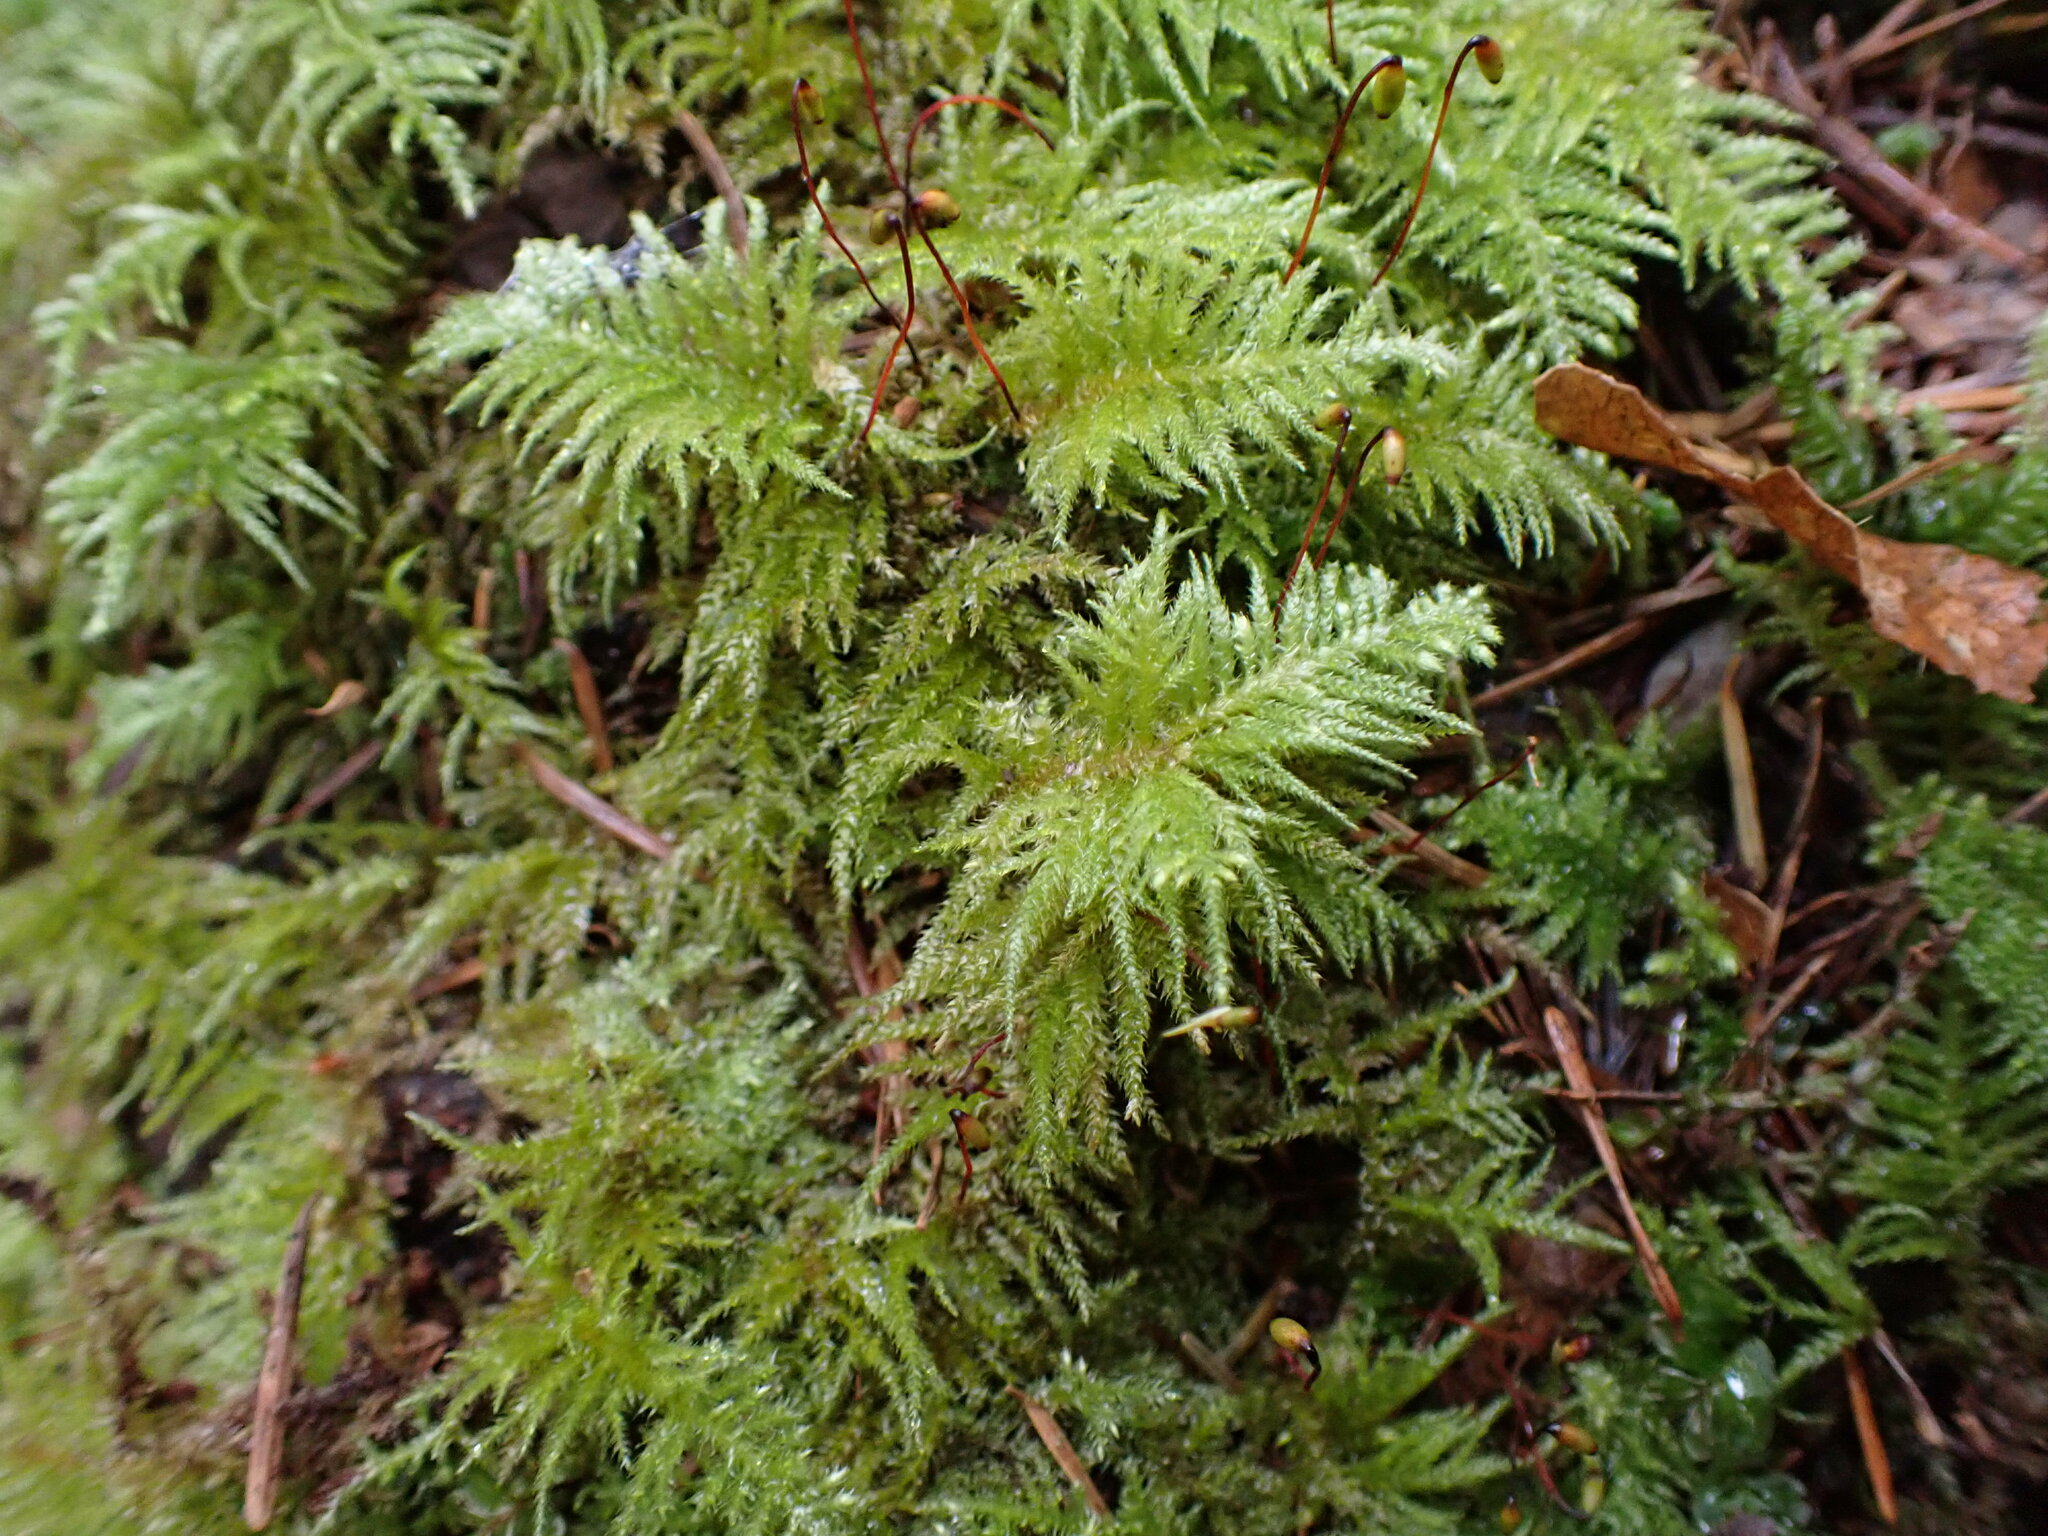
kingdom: Plantae
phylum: Bryophyta
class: Bryopsida
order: Hypnales
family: Brachytheciaceae
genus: Kindbergia
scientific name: Kindbergia oregana
